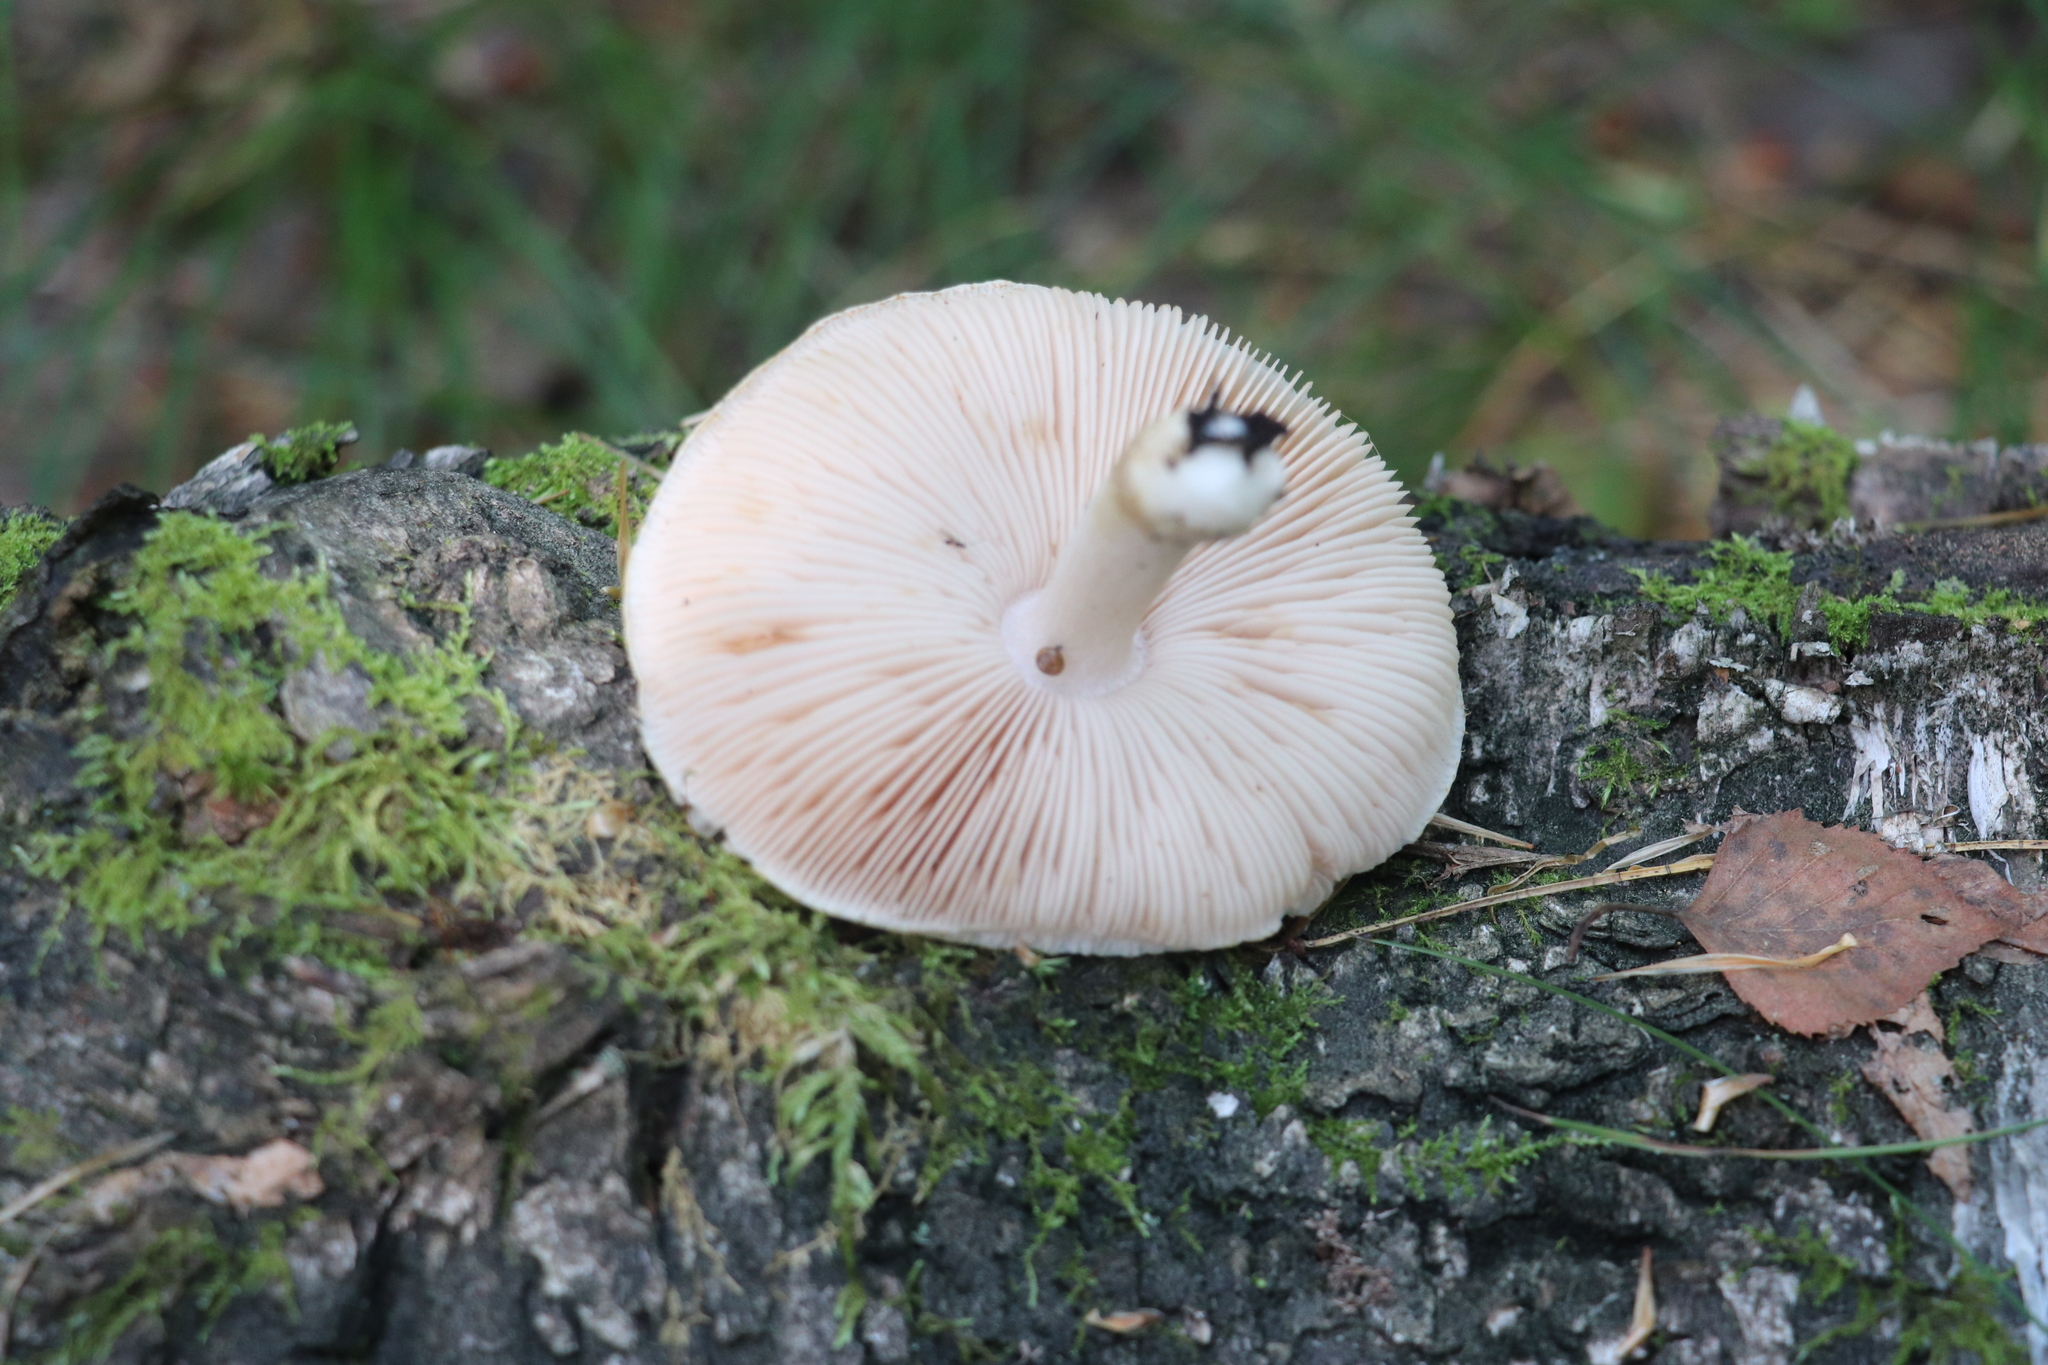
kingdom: Fungi
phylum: Basidiomycota
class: Agaricomycetes
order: Agaricales
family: Pluteaceae
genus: Pluteus
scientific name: Pluteus petasatus
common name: Scaly shield
